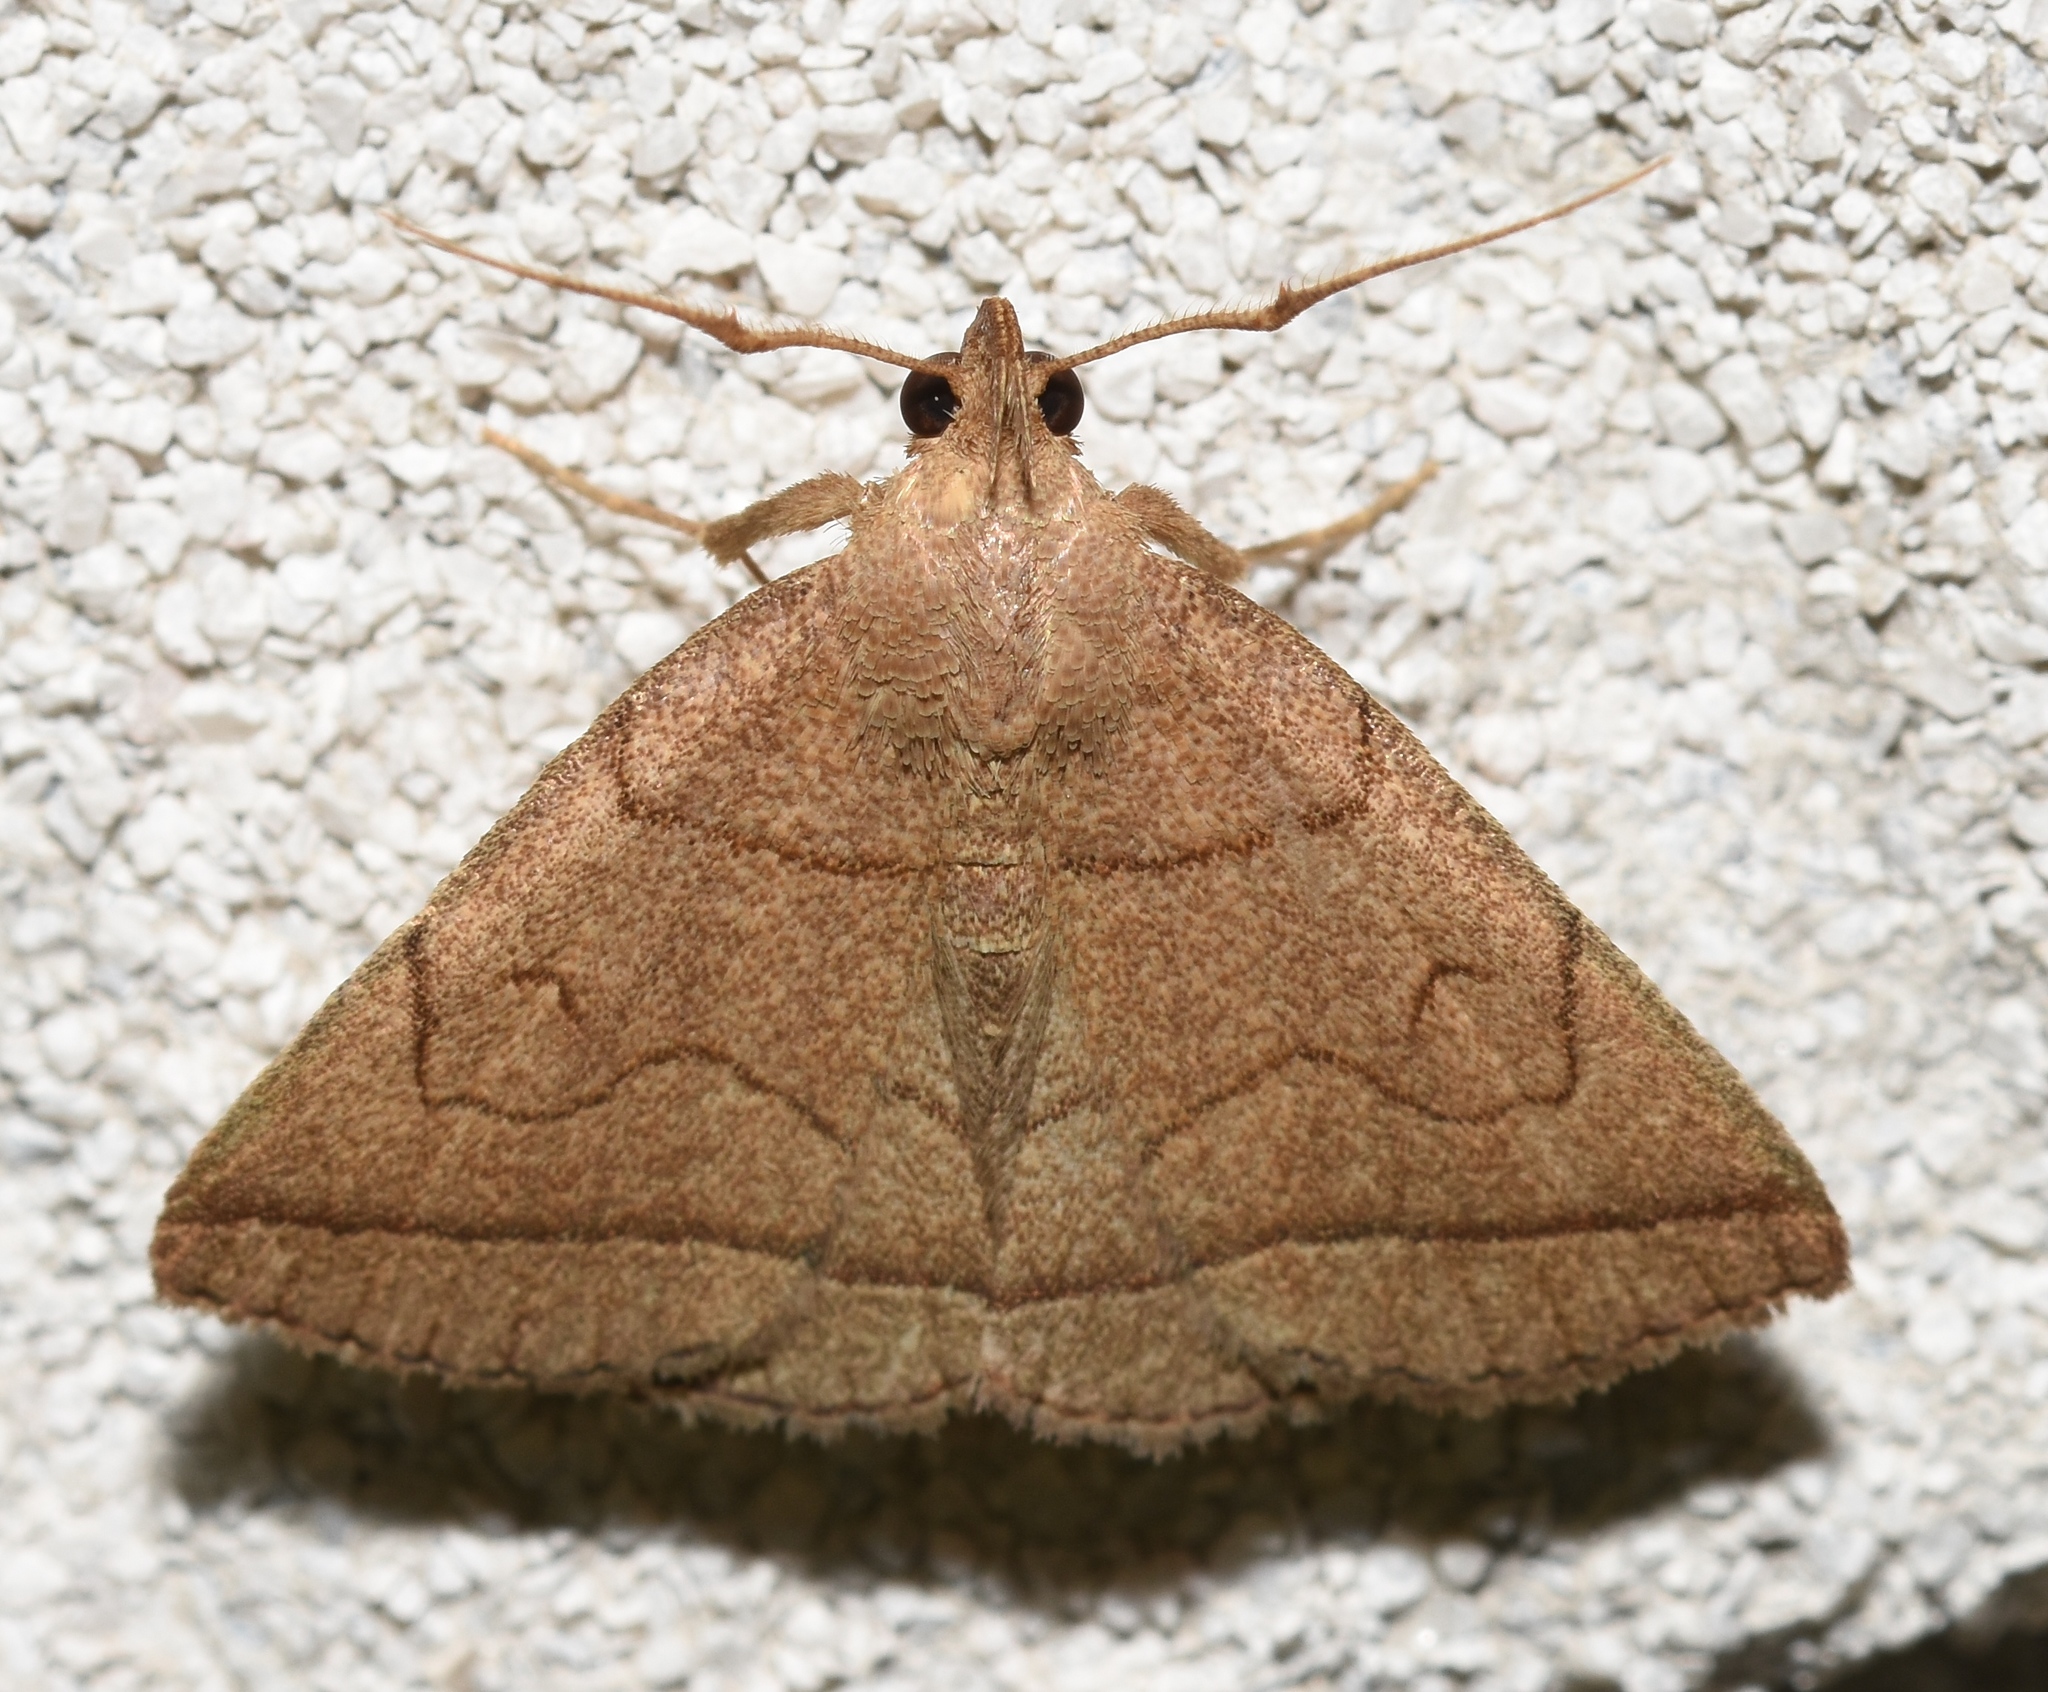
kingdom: Animalia
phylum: Arthropoda
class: Insecta
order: Lepidoptera
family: Erebidae
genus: Zanclognatha
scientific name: Zanclognatha cruralis
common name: Early fan-foot
